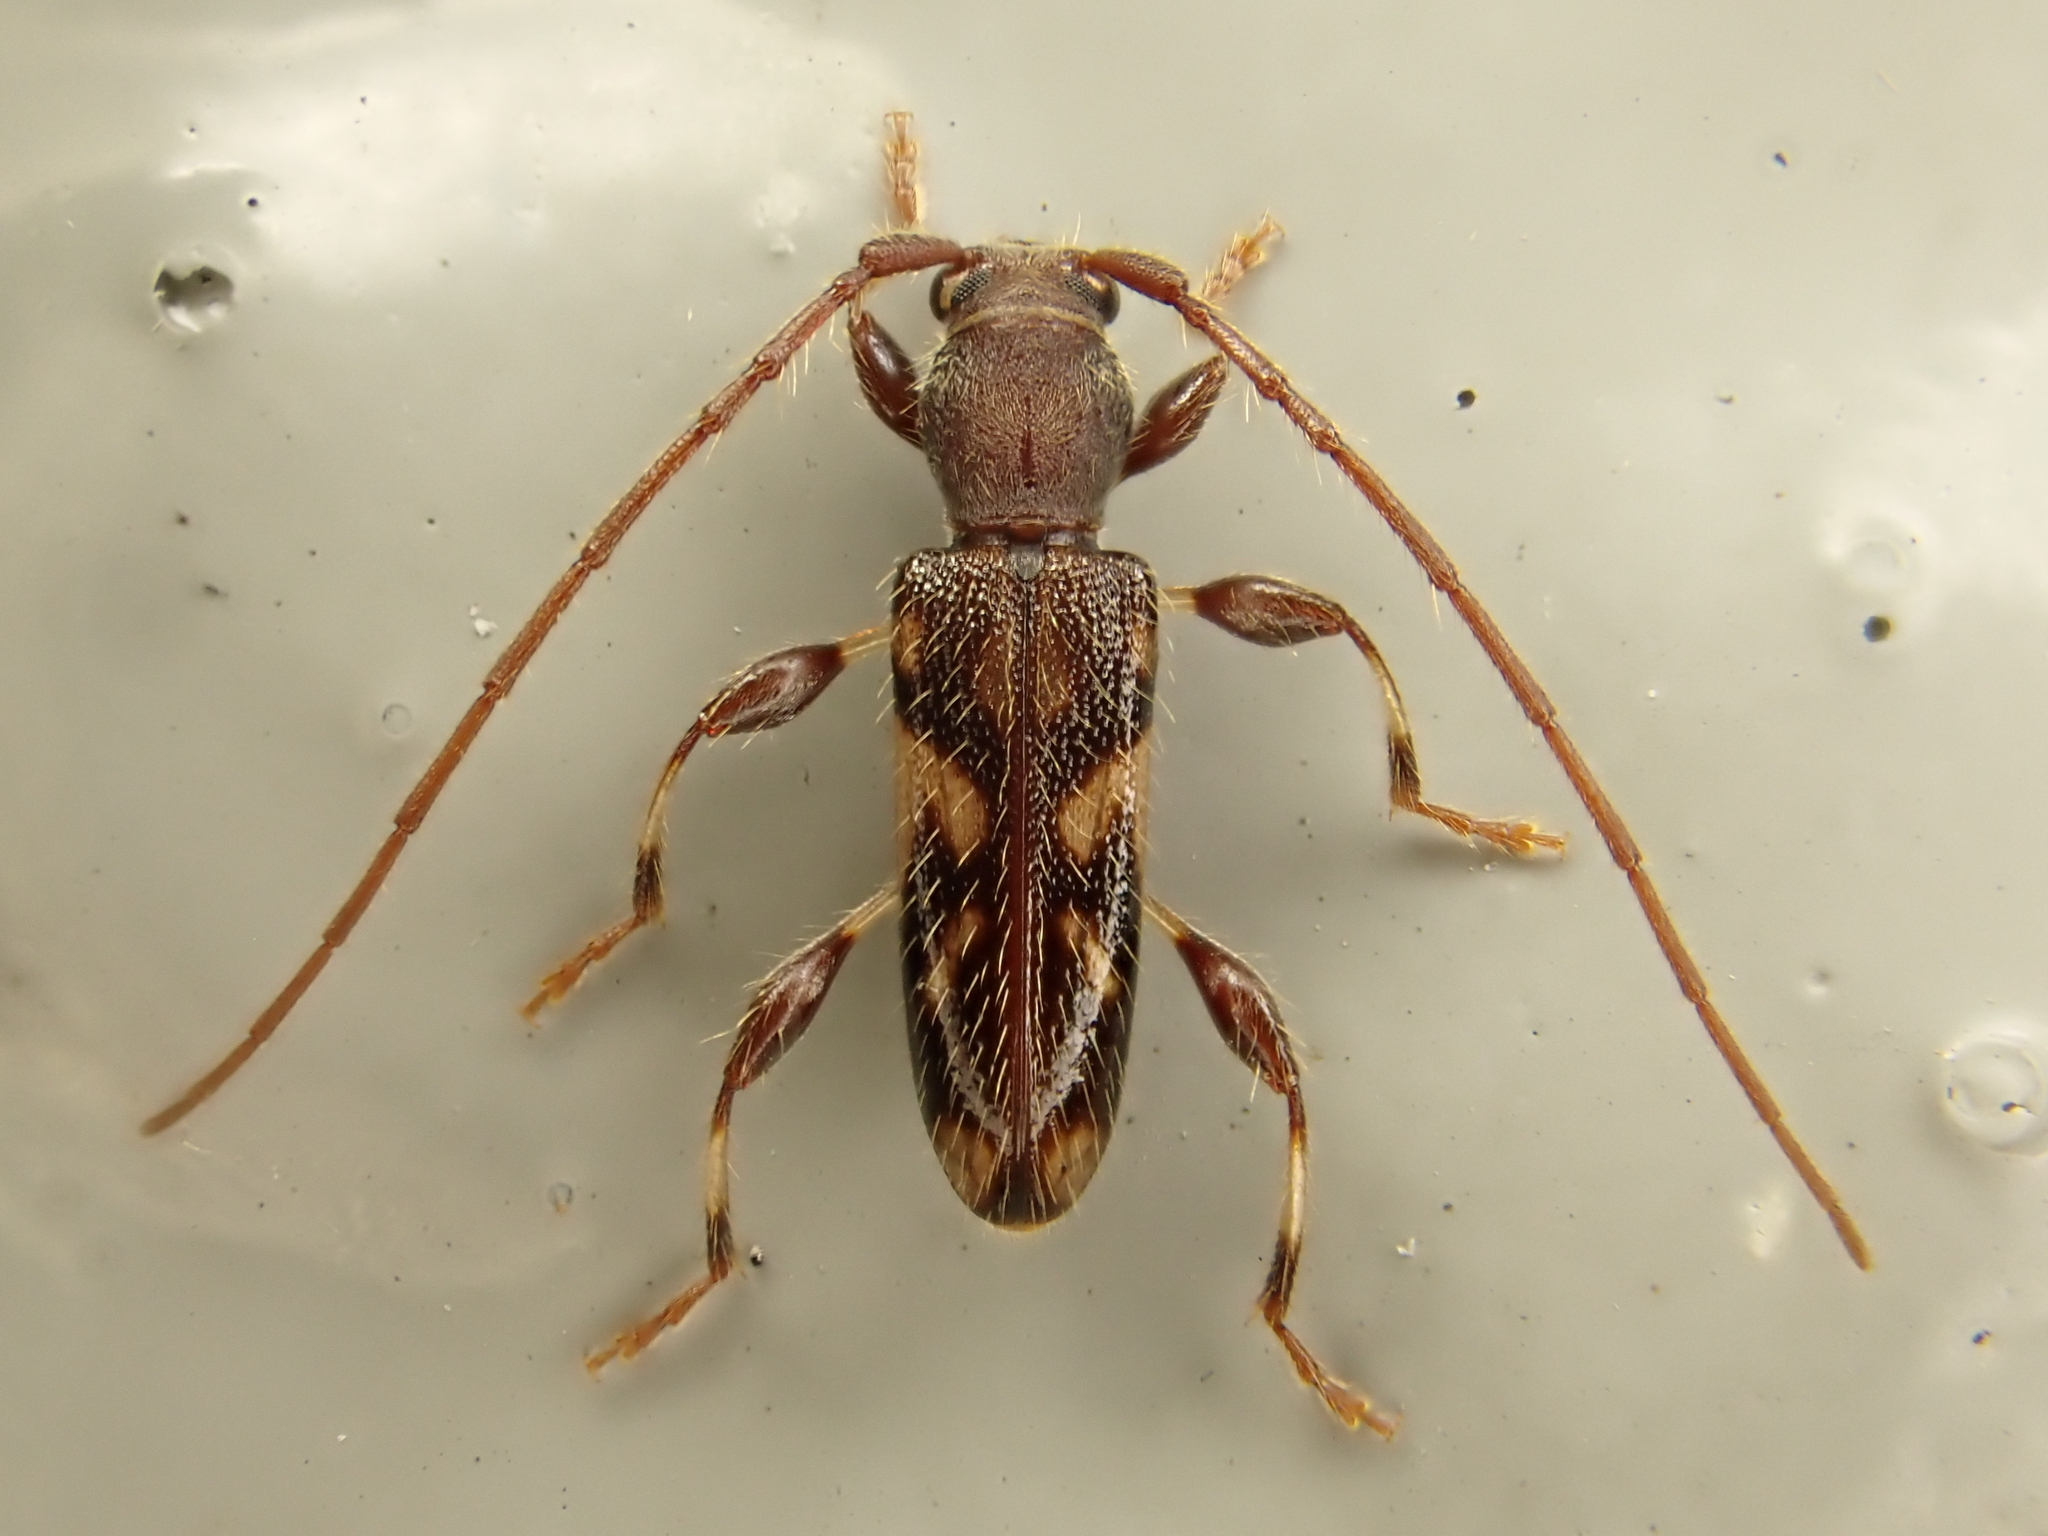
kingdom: Animalia
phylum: Arthropoda
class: Insecta
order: Coleoptera
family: Cerambycidae
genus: Bethelium
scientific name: Bethelium signiferum
